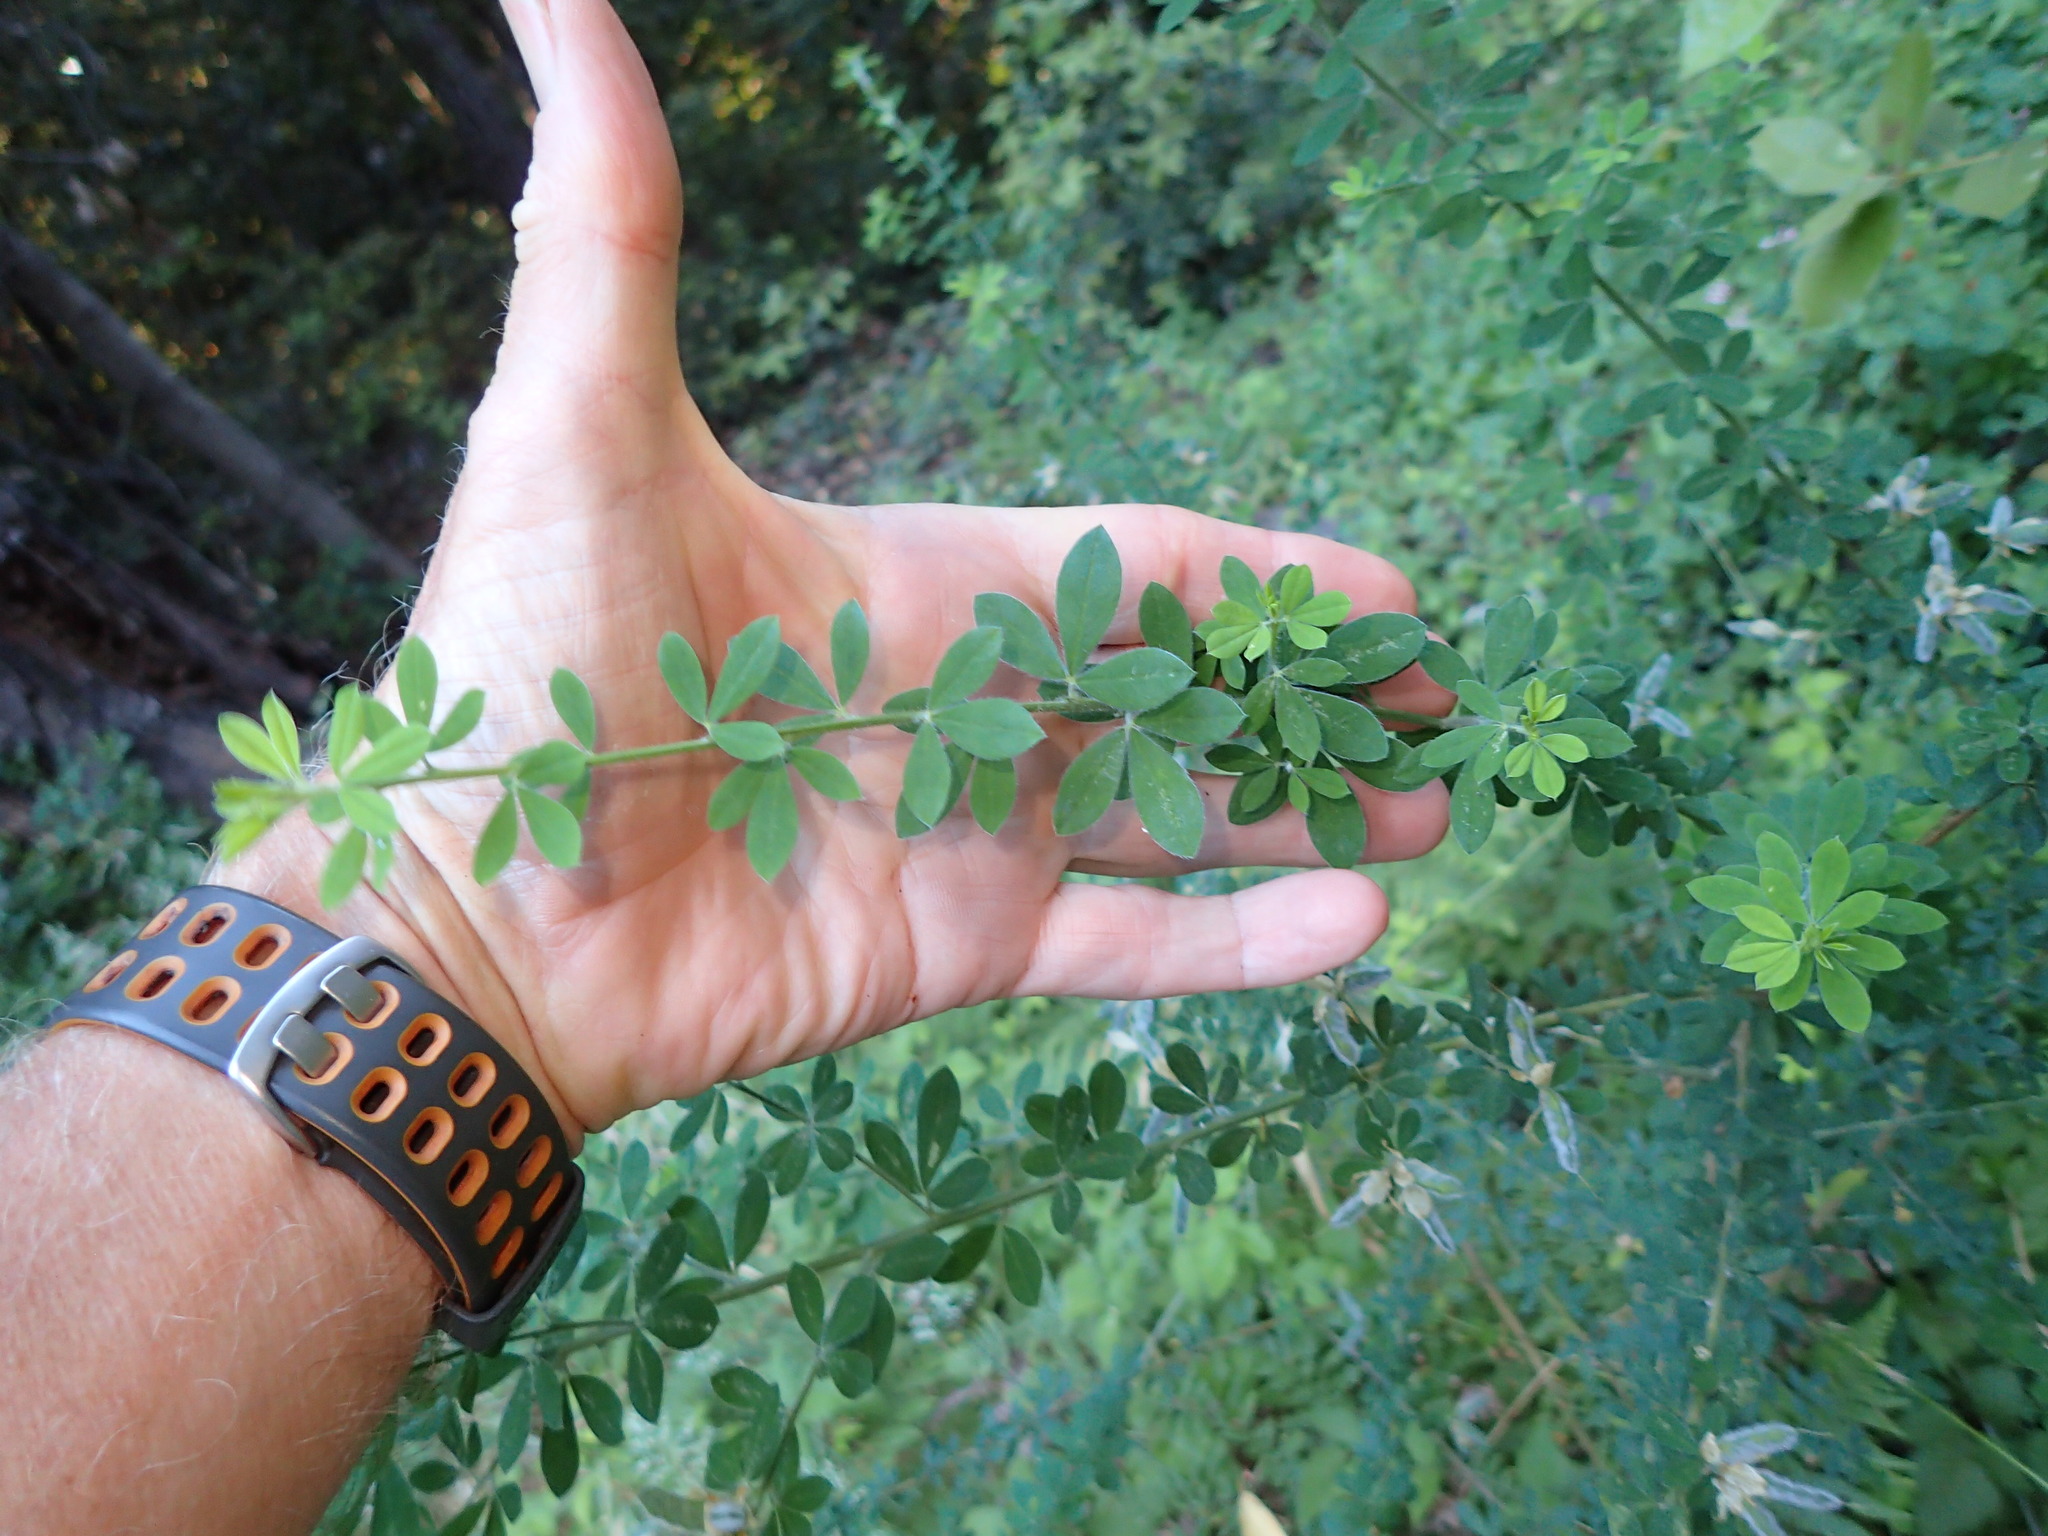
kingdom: Plantae
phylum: Tracheophyta
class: Magnoliopsida
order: Fabales
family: Fabaceae
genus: Genista
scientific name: Genista monspessulana
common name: Montpellier broom
